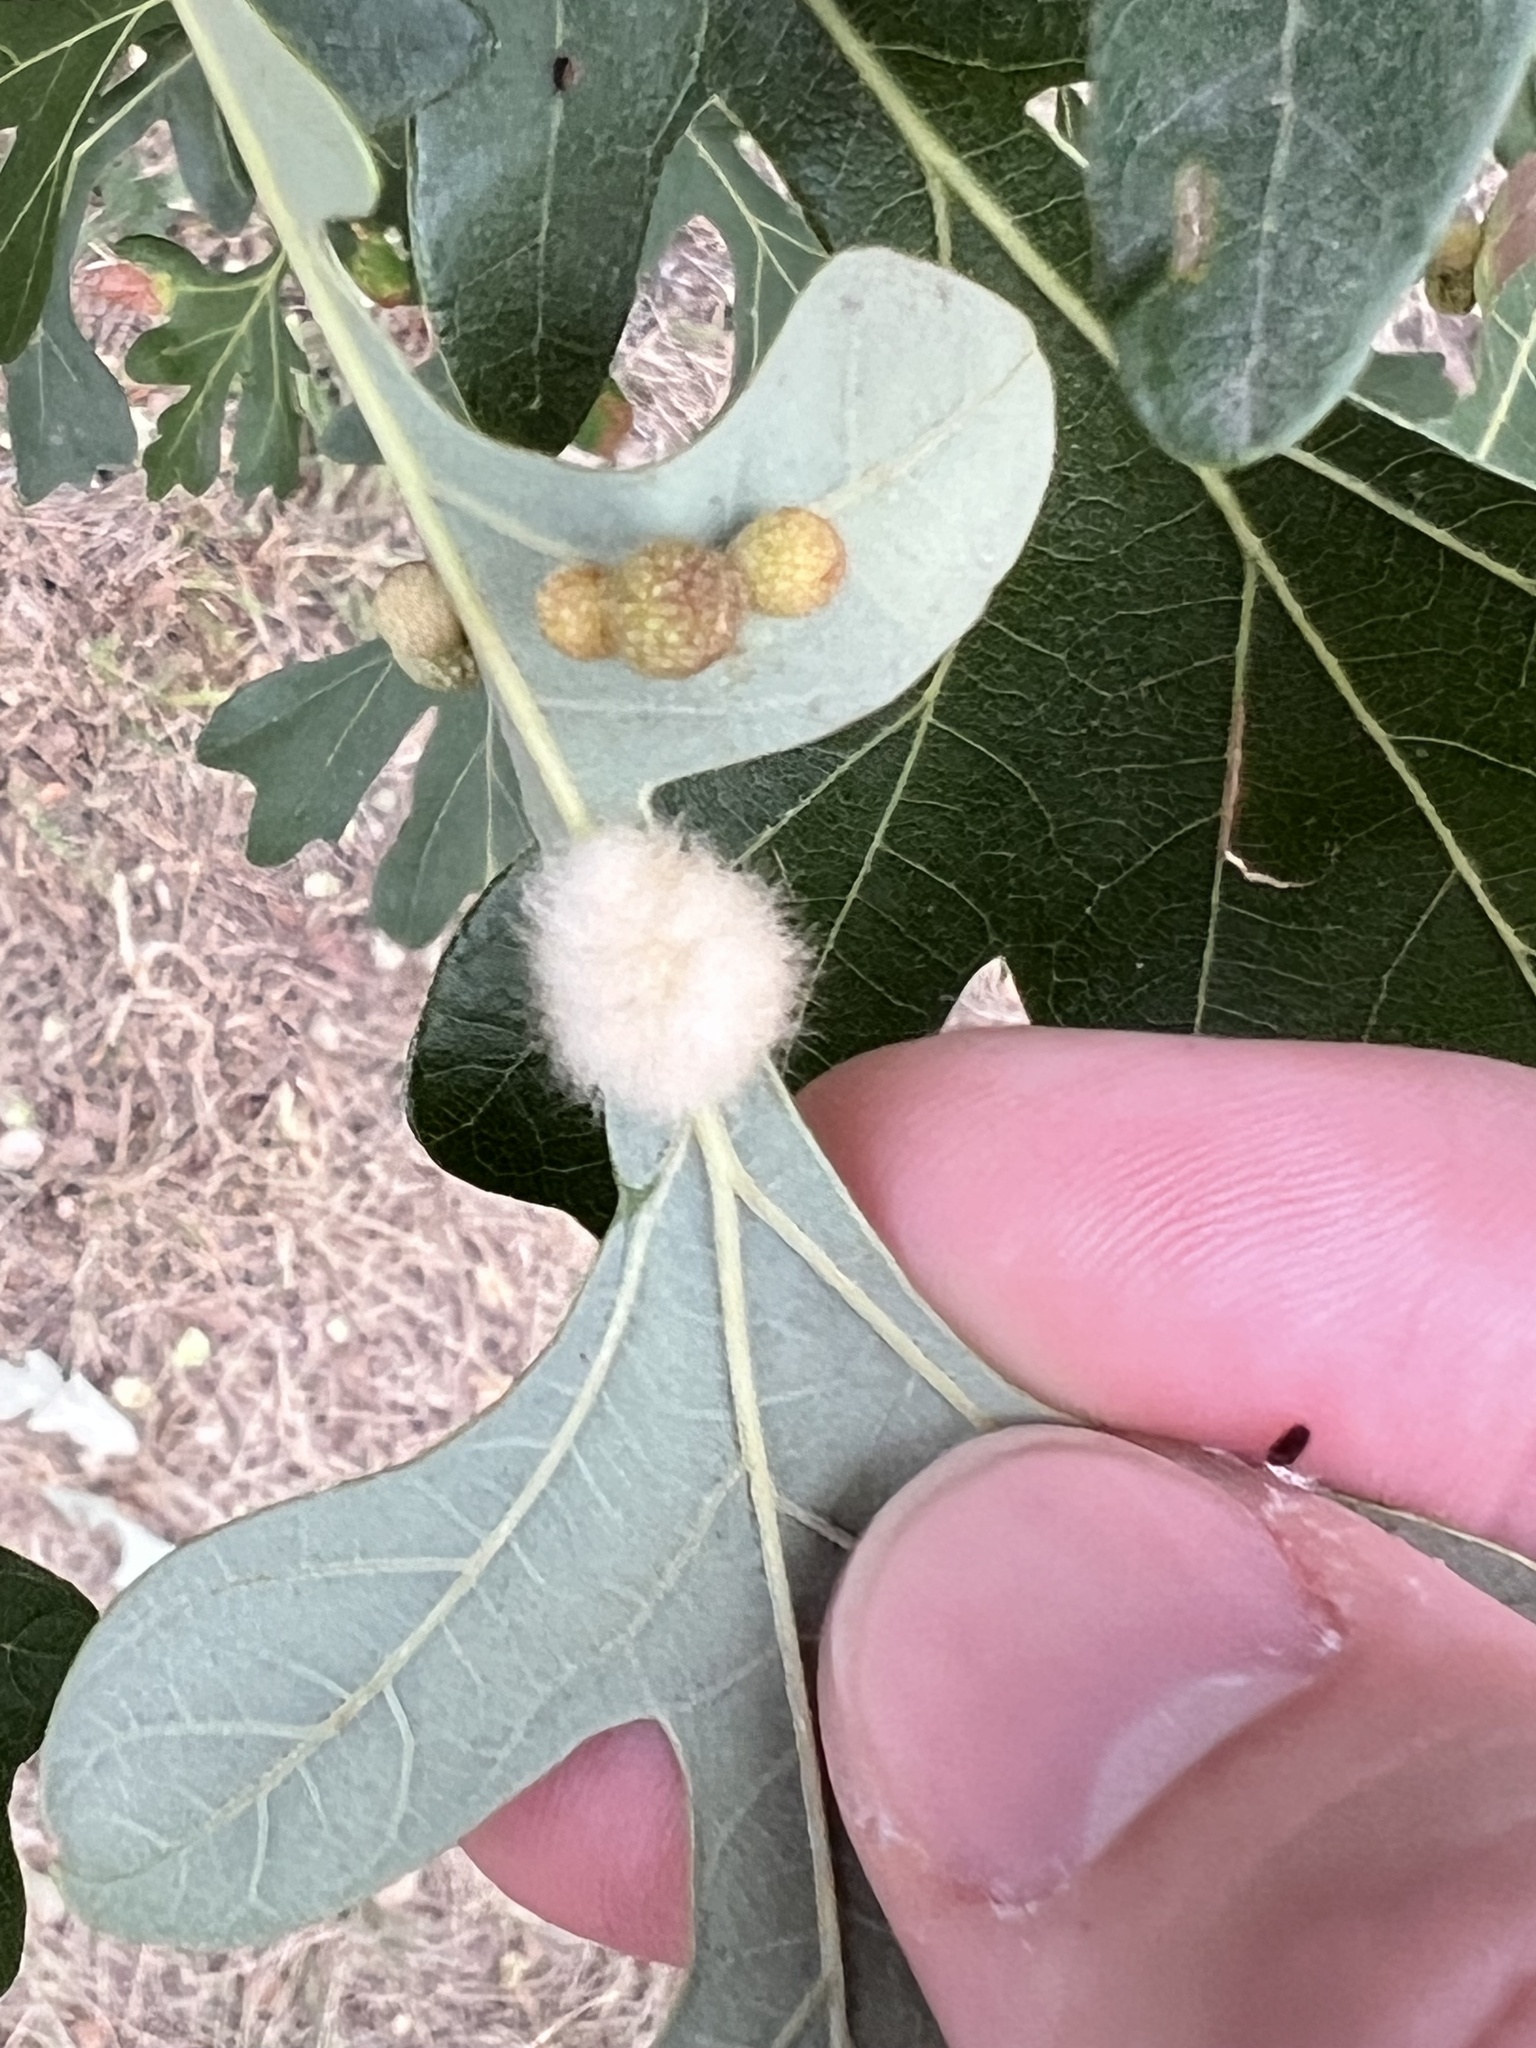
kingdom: Animalia
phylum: Arthropoda
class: Insecta
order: Hymenoptera
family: Cynipidae
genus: Andricus
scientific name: Andricus Druon ignotum
